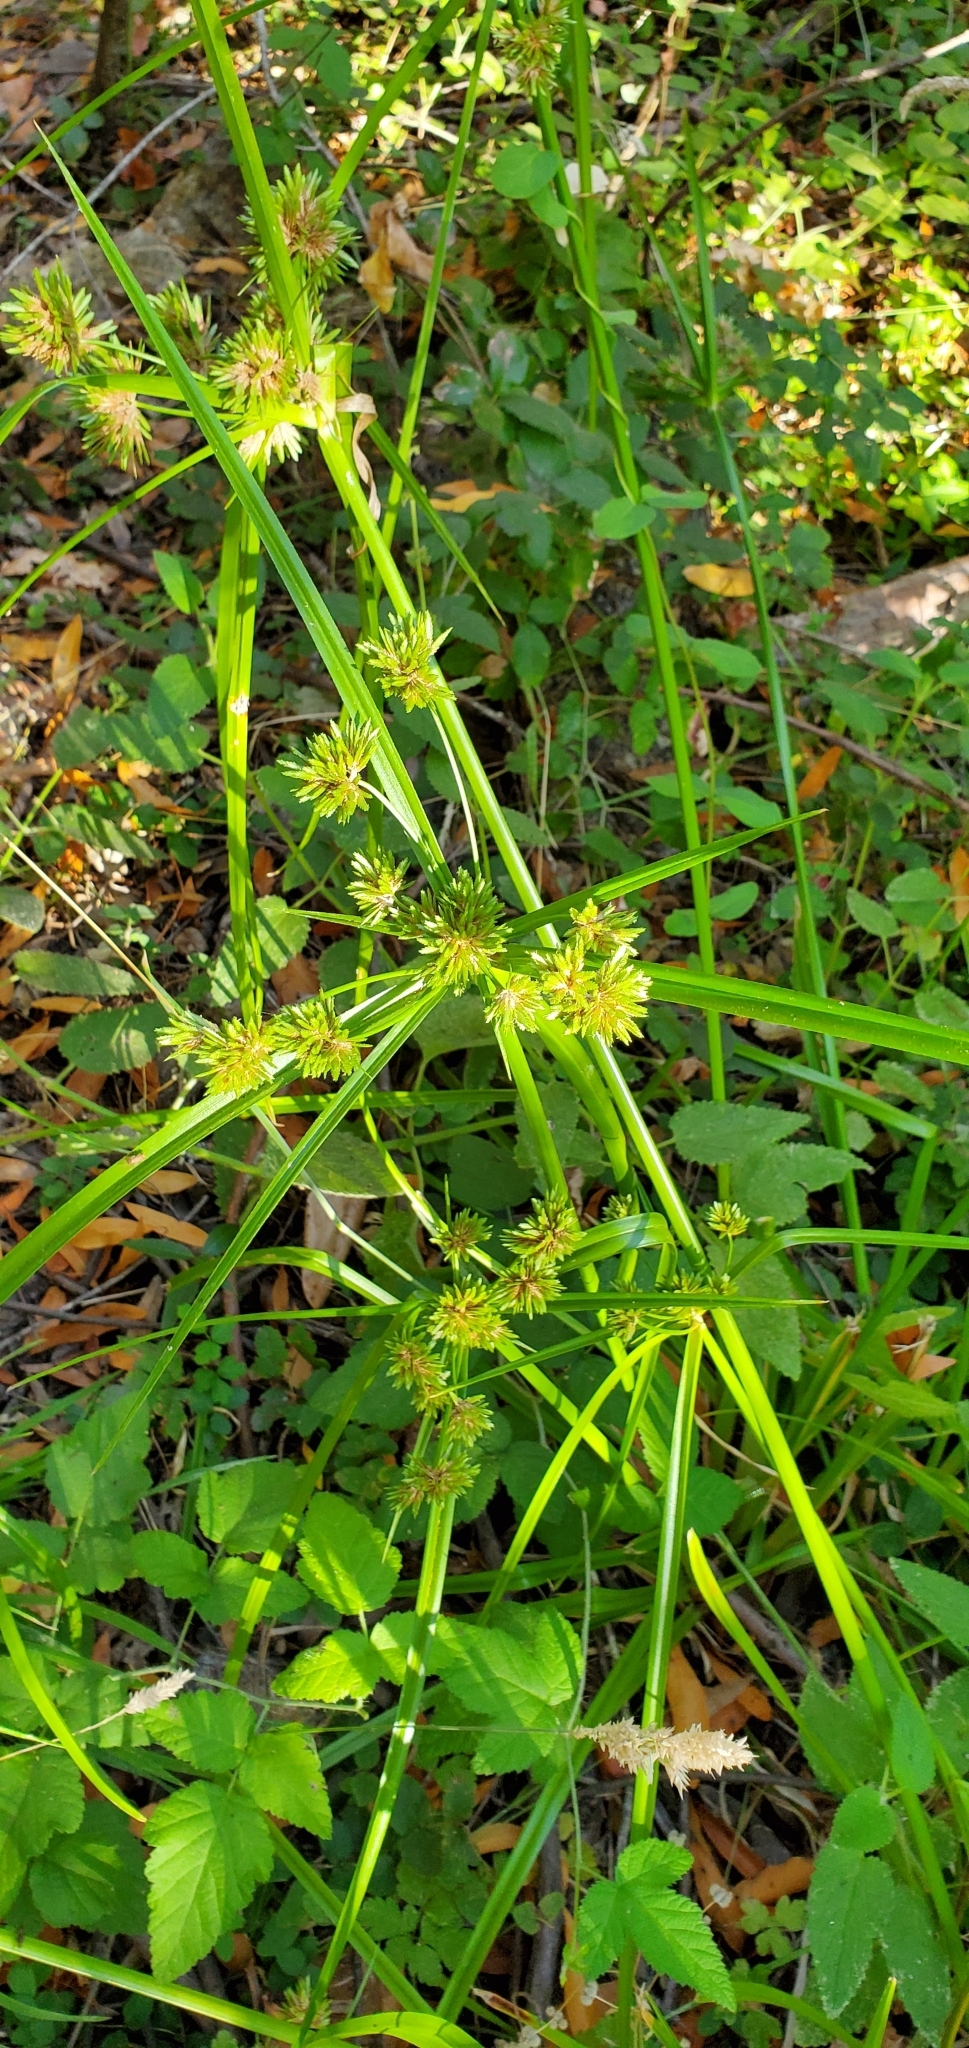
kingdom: Plantae
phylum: Tracheophyta
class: Liliopsida
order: Poales
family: Cyperaceae
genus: Cyperus
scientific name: Cyperus eragrostis
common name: Tall flatsedge
